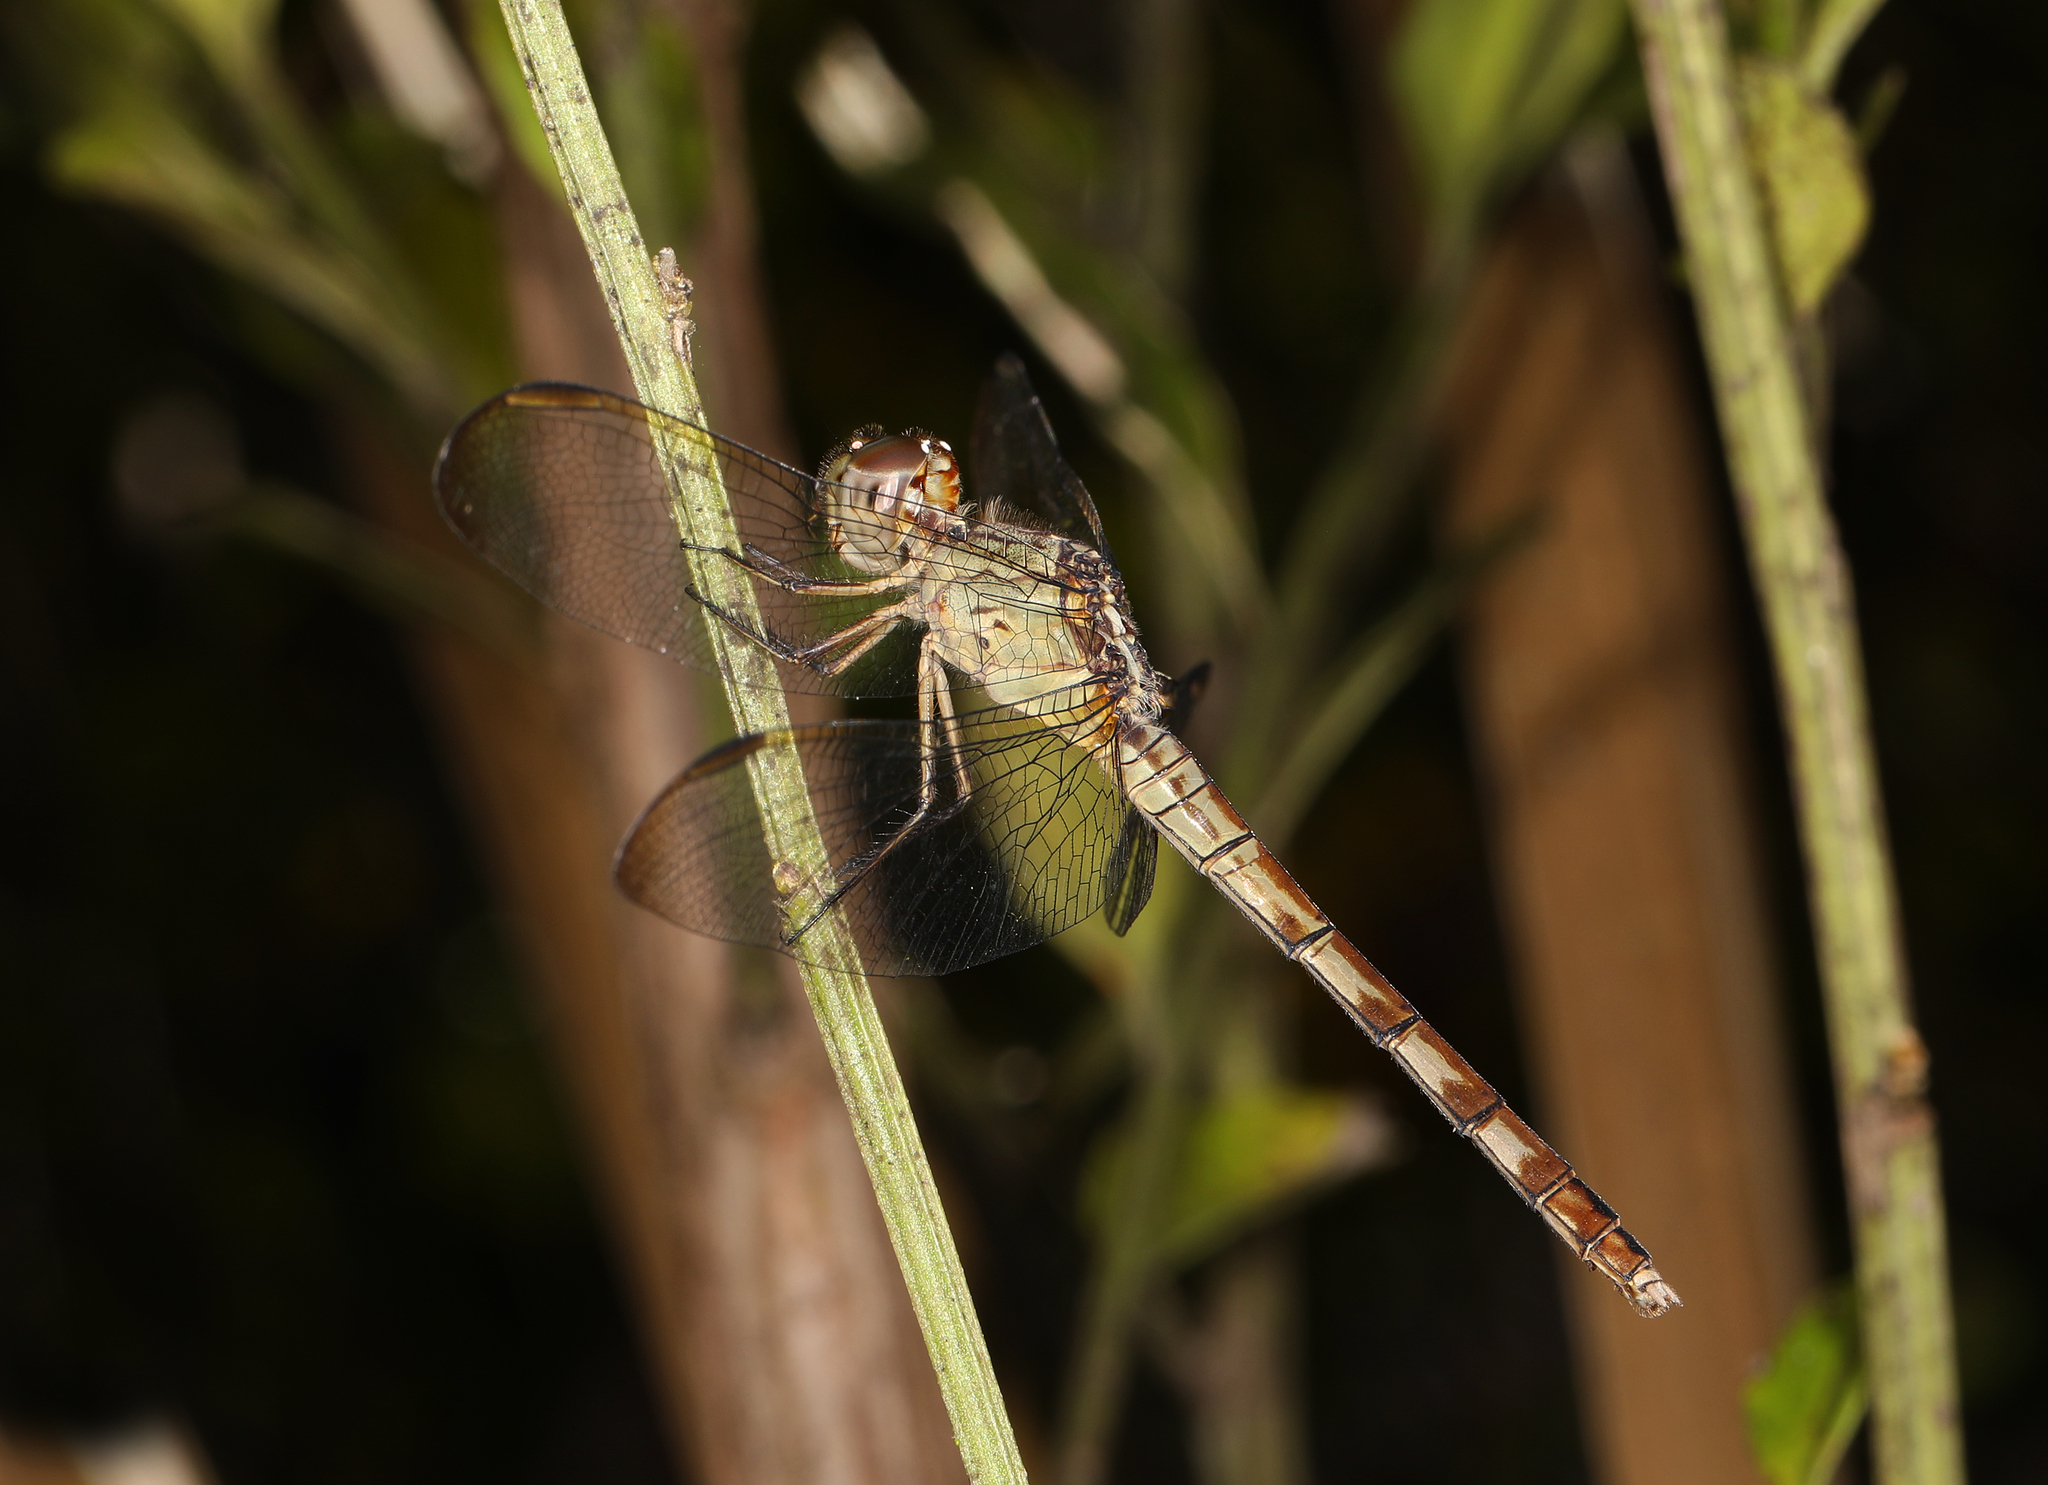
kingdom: Animalia
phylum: Arthropoda
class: Insecta
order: Odonata
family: Libellulidae
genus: Erythrodiplax
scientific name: Erythrodiplax umbrata
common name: Band-winged dragonlet
